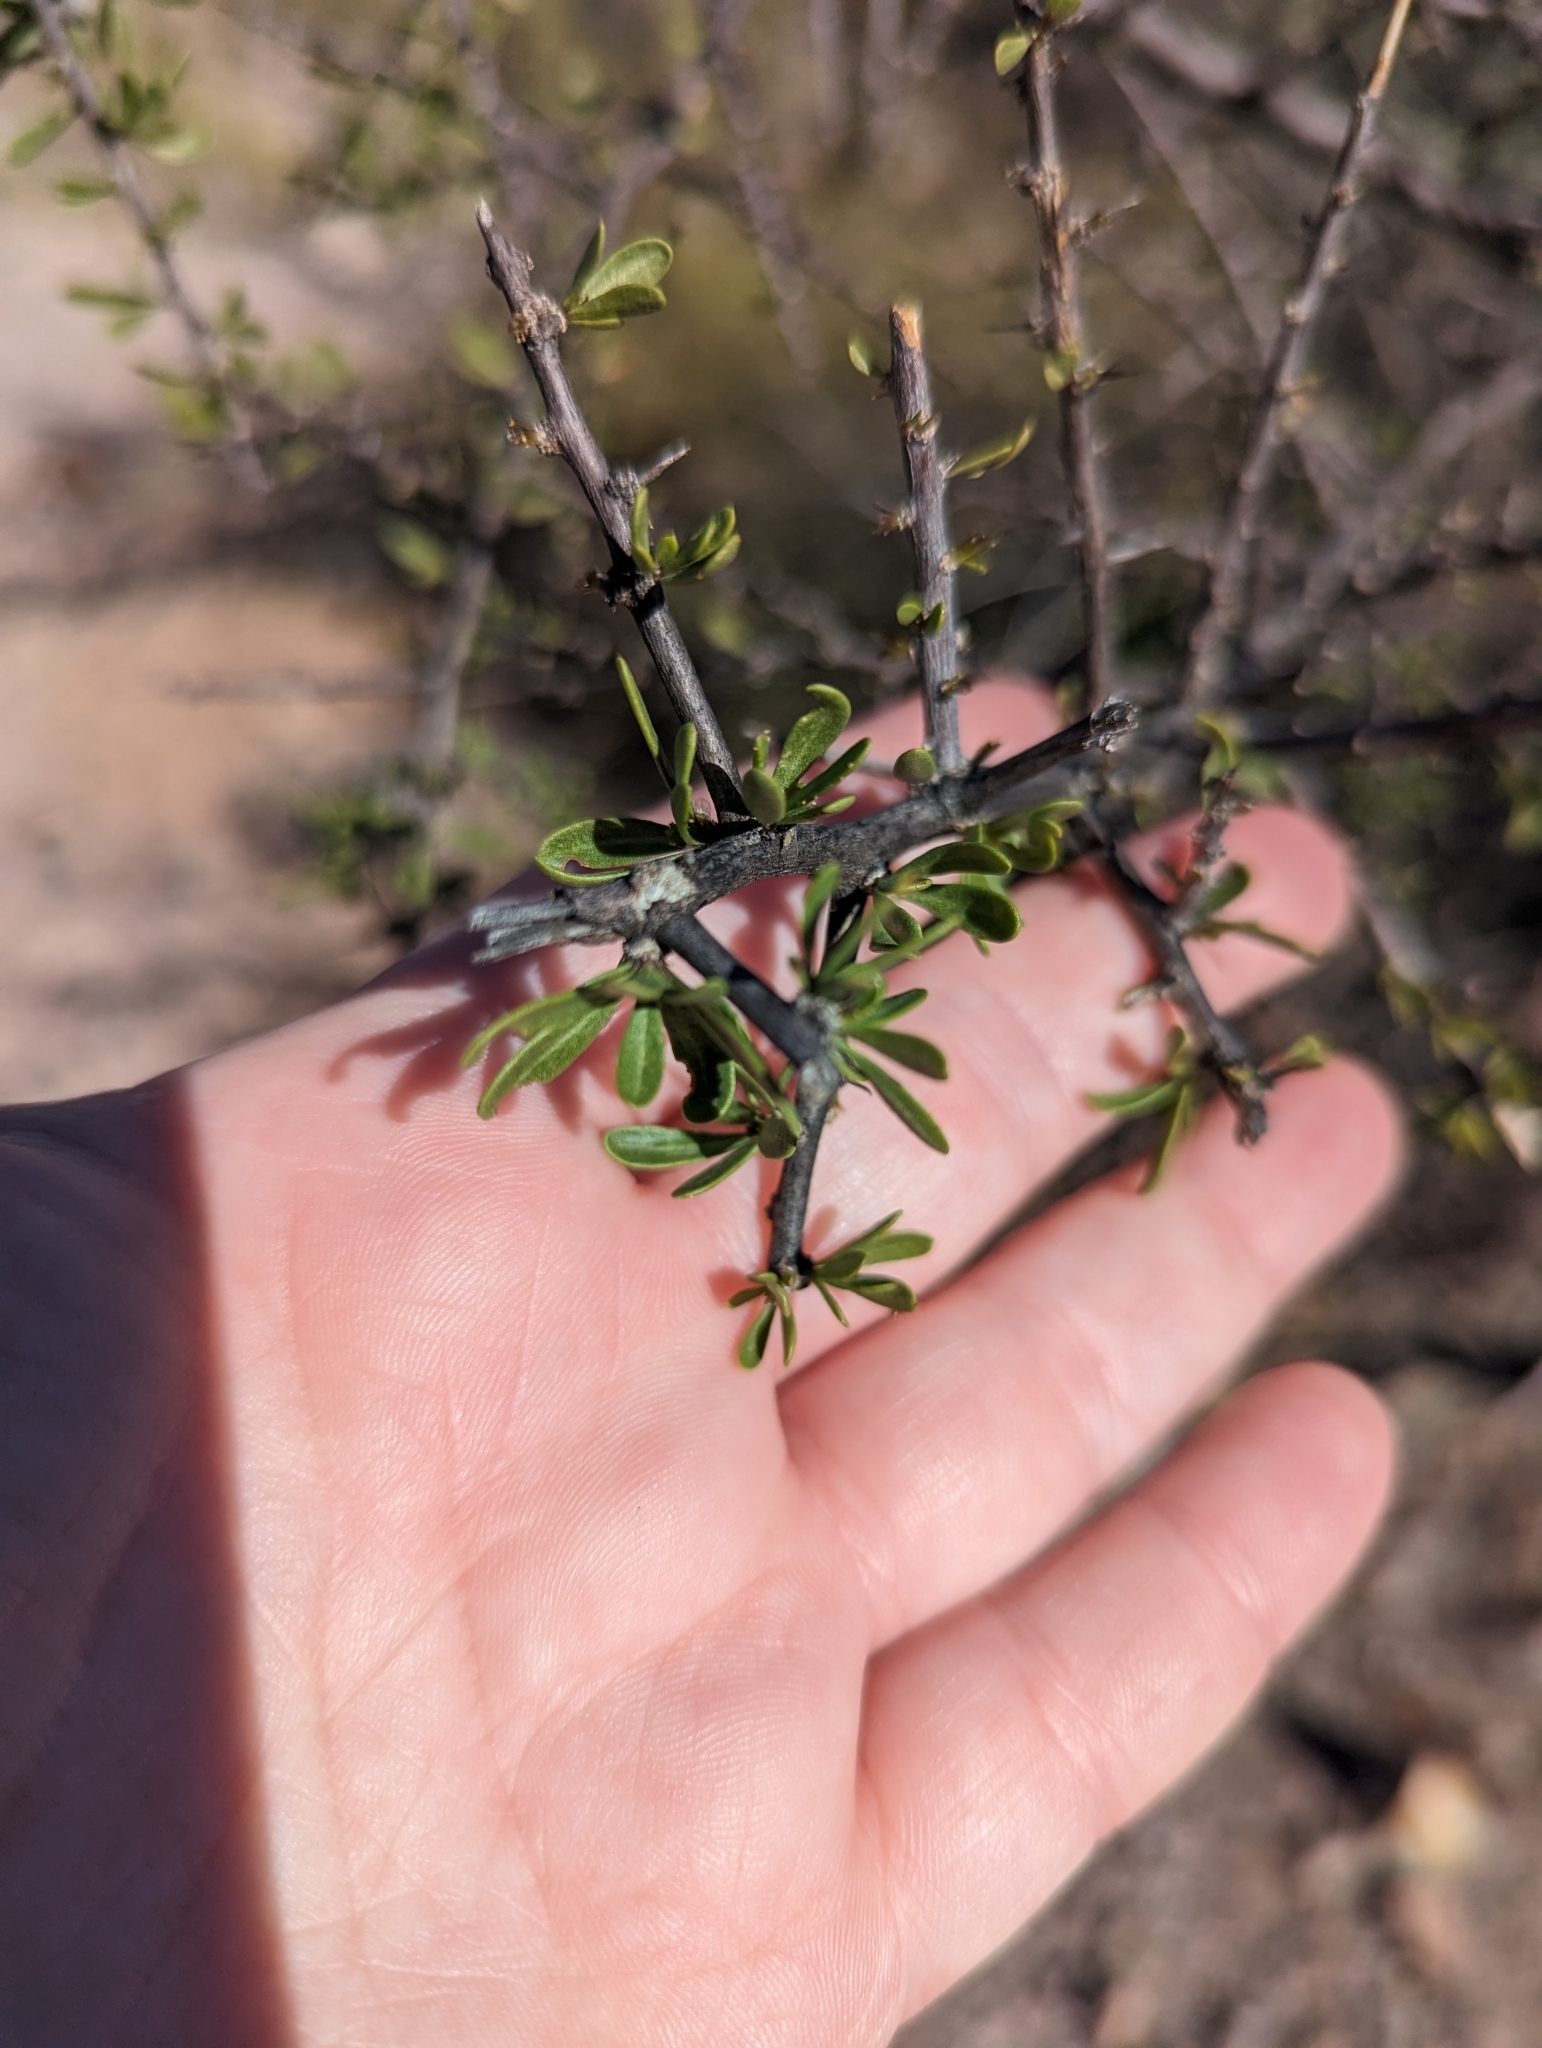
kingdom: Plantae
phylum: Tracheophyta
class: Magnoliopsida
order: Solanales
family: Solanaceae
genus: Lycium
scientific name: Lycium berlandieri
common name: Berlandier wolfberry
